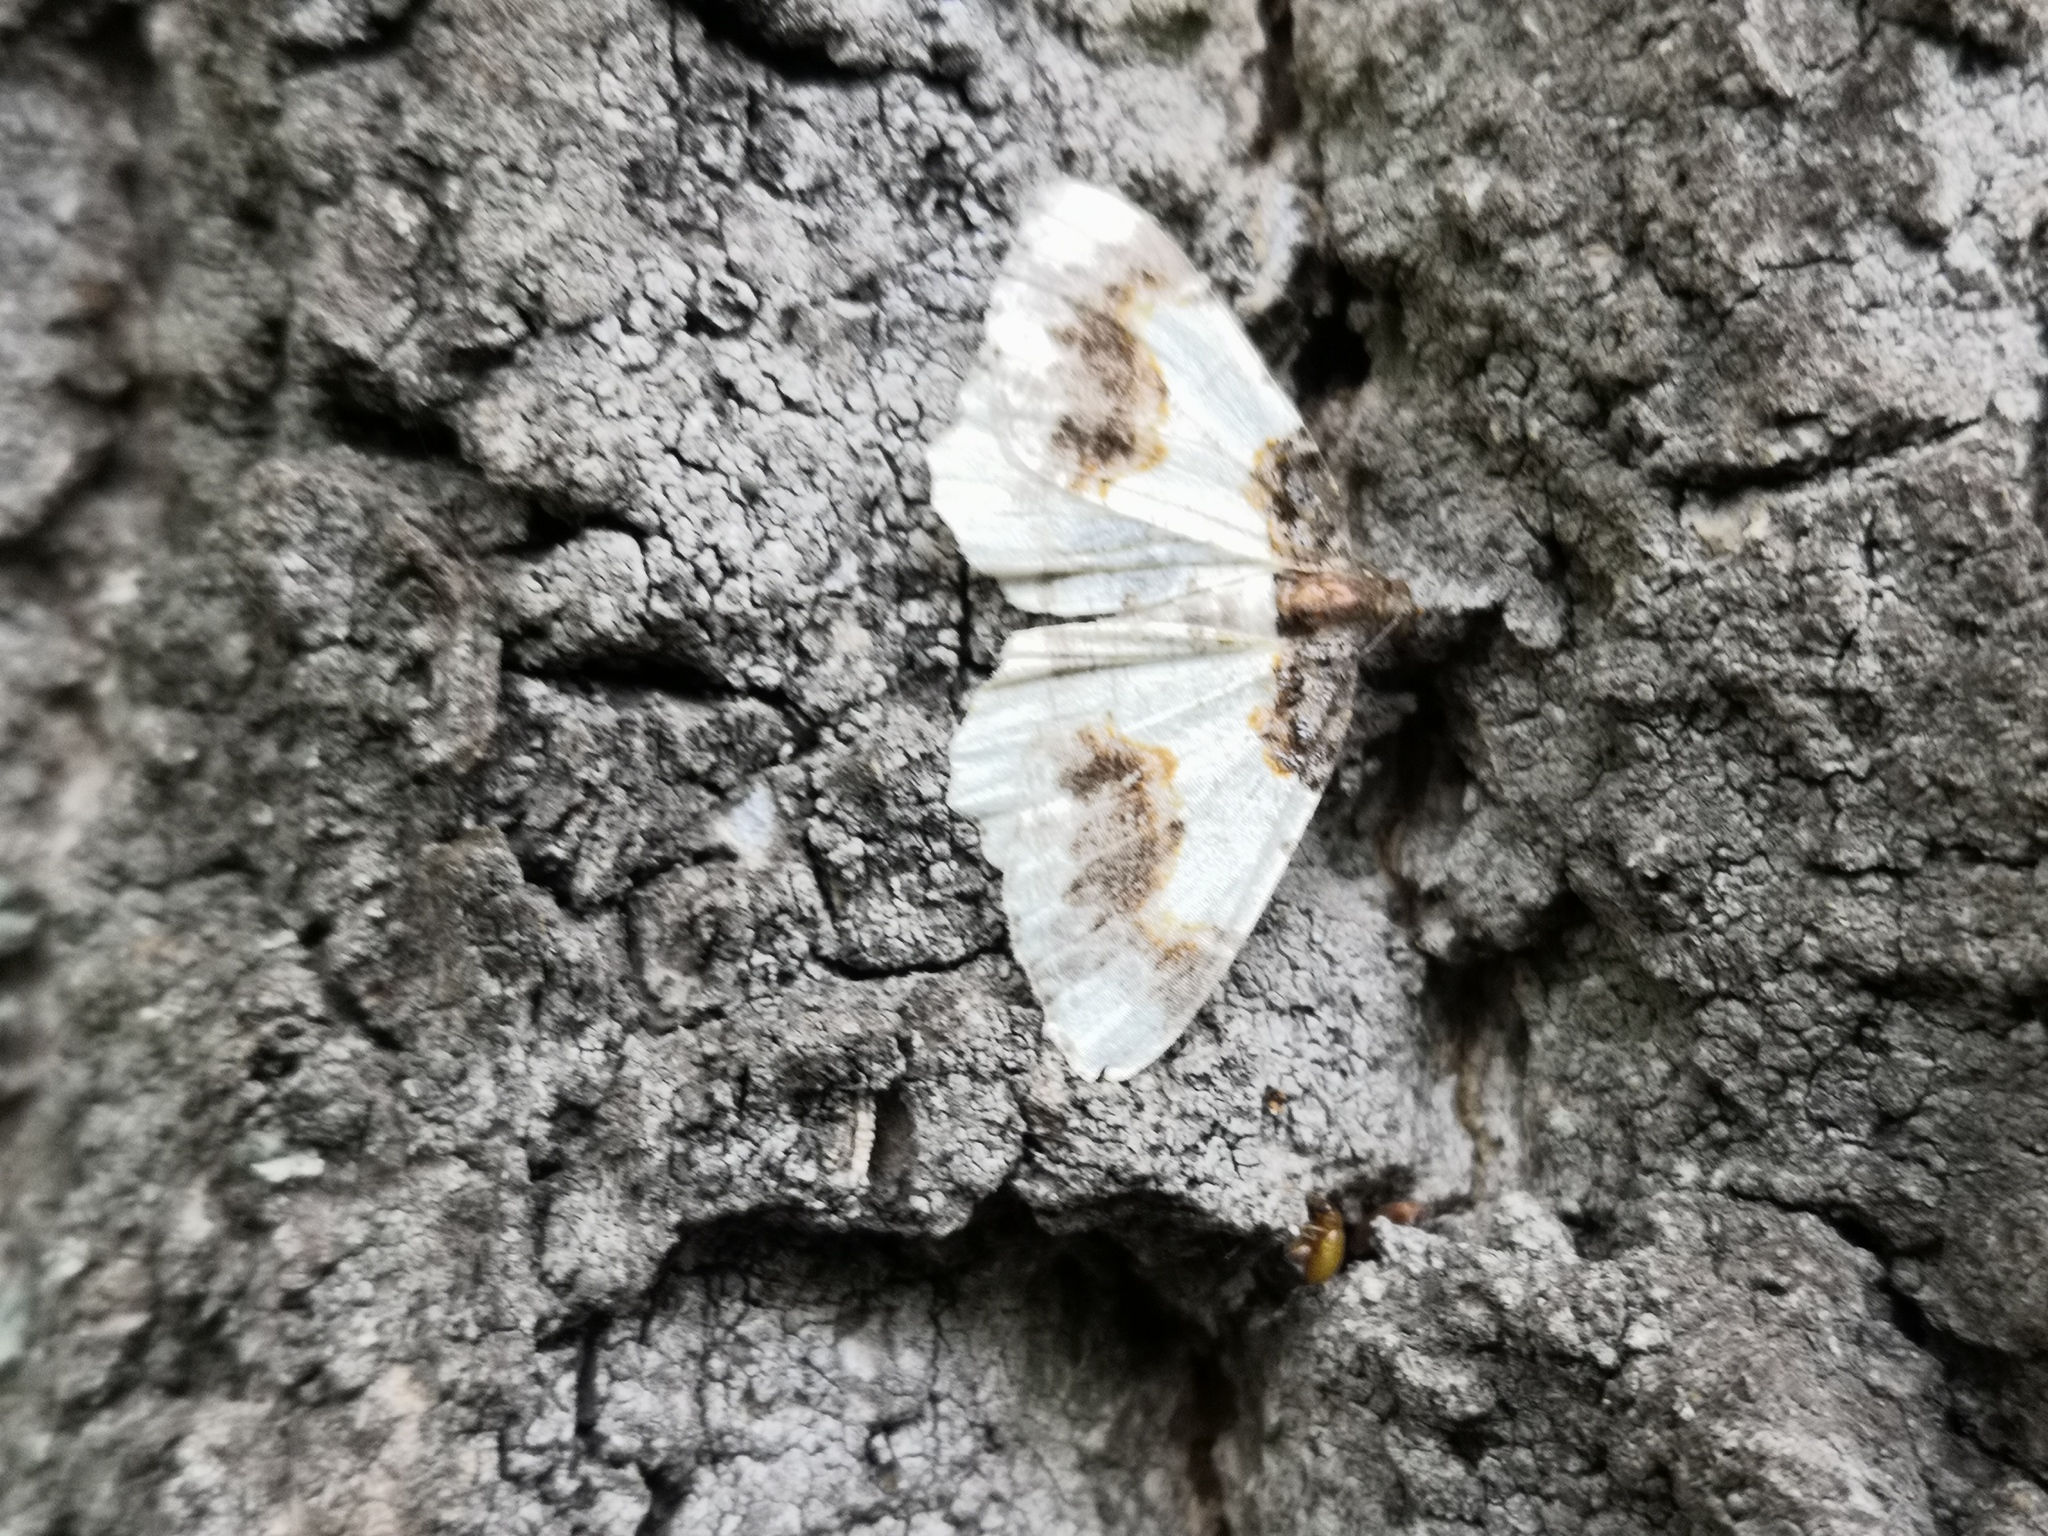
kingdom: Animalia
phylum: Arthropoda
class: Insecta
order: Lepidoptera
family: Geometridae
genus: Ligdia
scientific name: Ligdia adustata
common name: Scorched carpet
